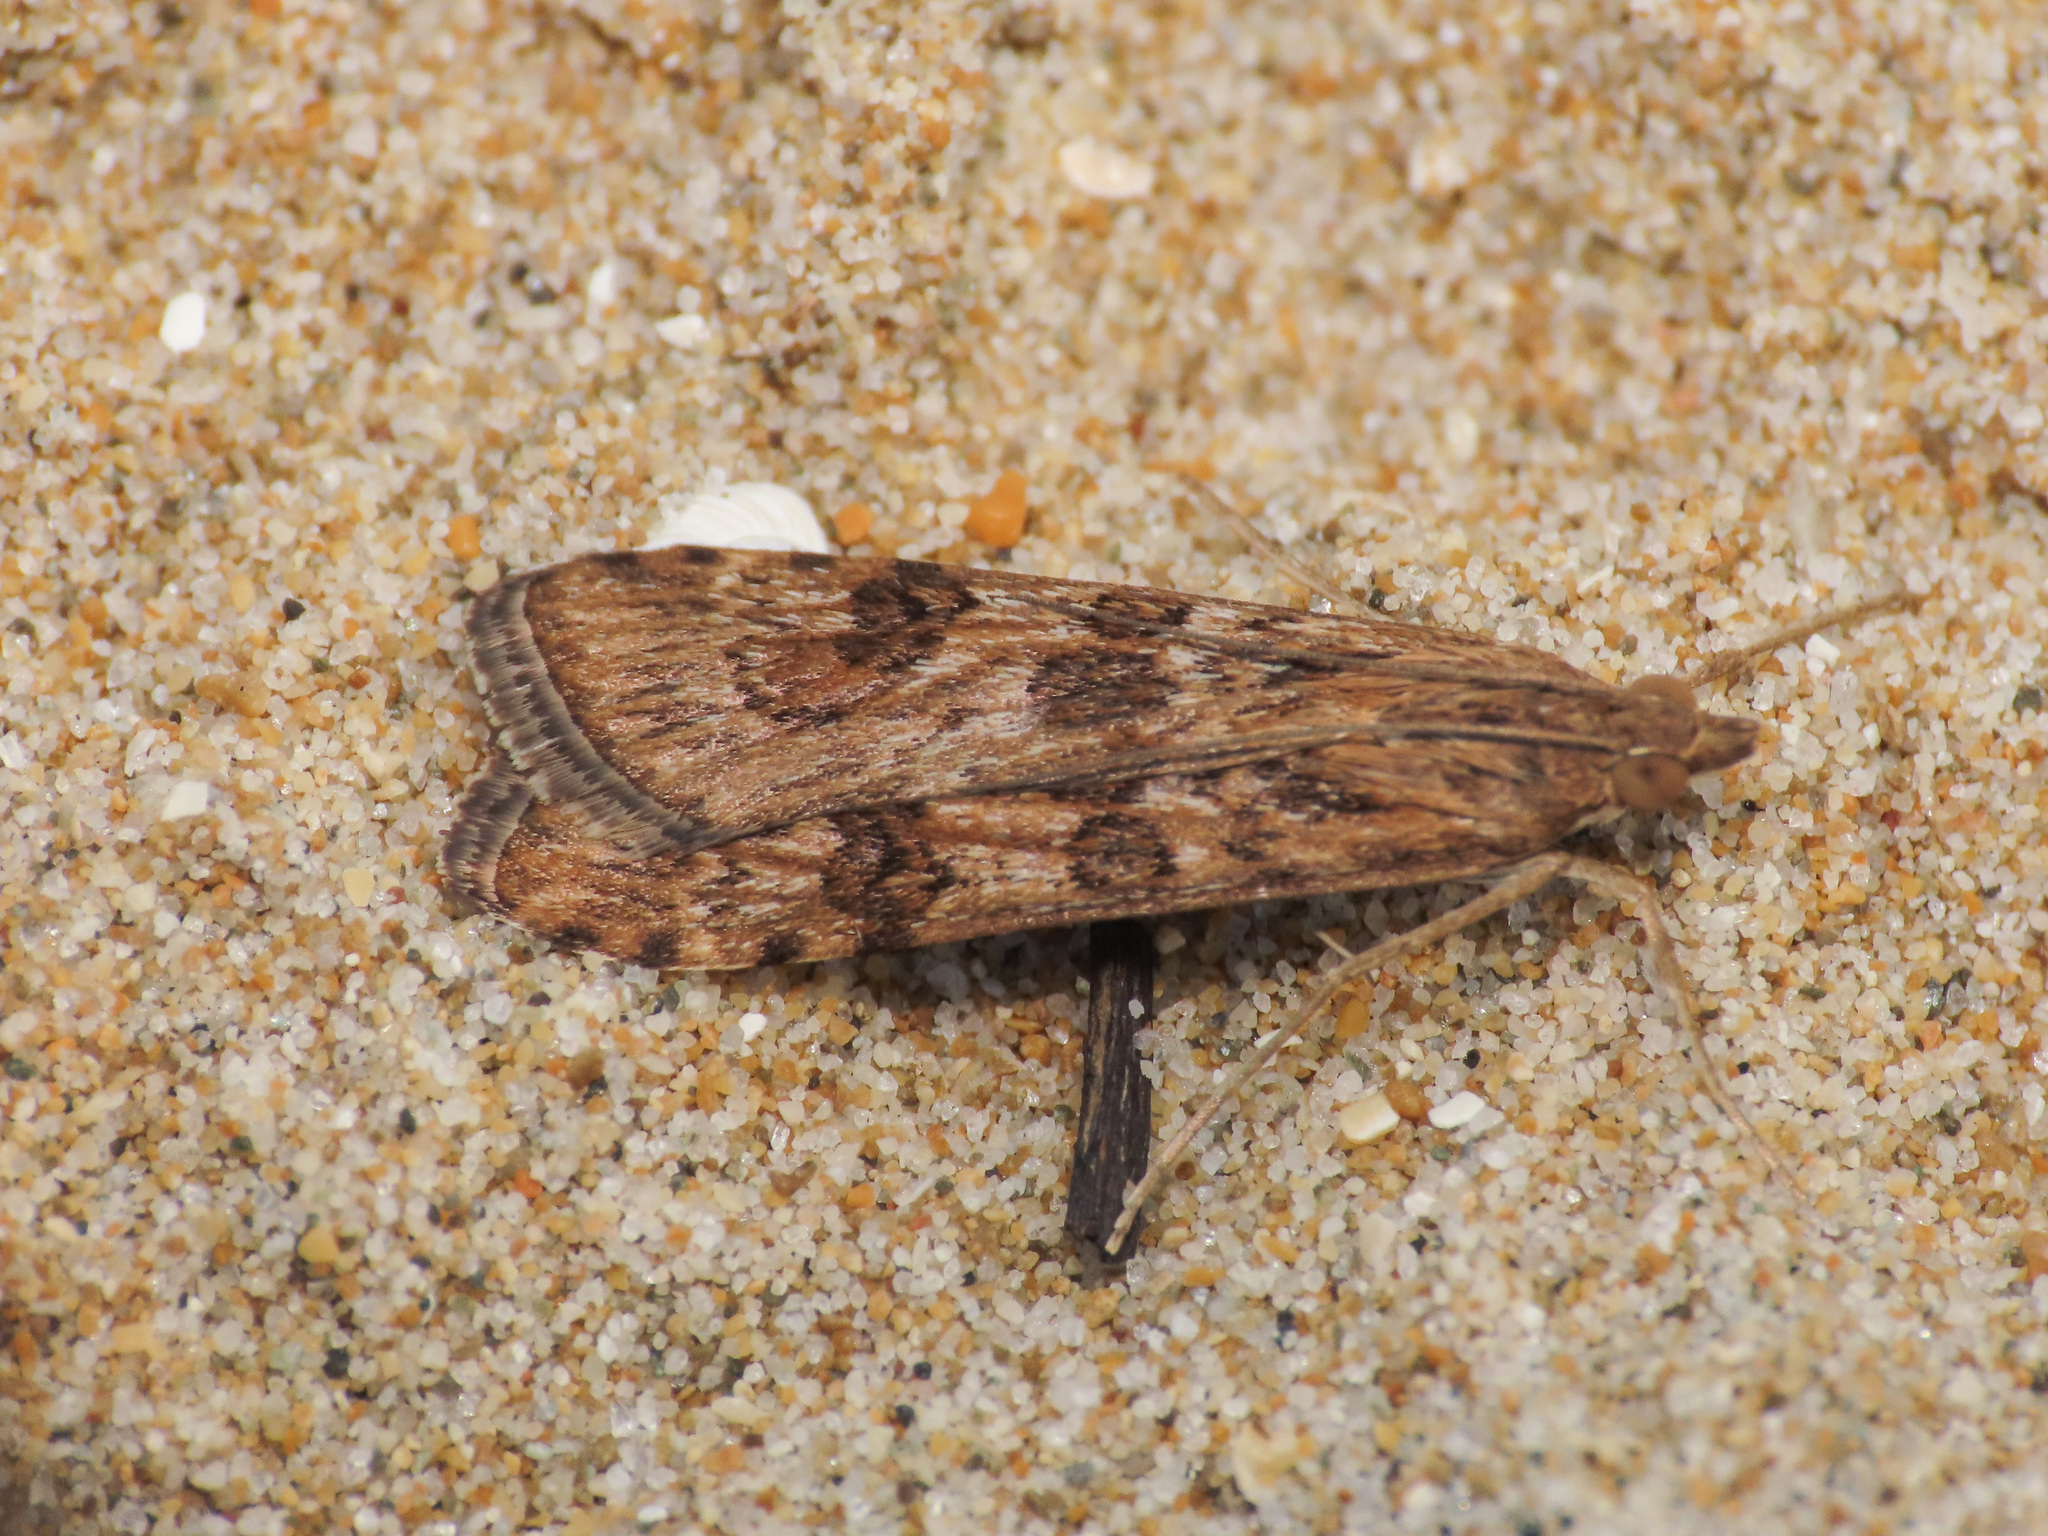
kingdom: Animalia
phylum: Arthropoda
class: Insecta
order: Lepidoptera
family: Crambidae
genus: Nomophila
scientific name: Nomophila noctuella
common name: Rush veneer
